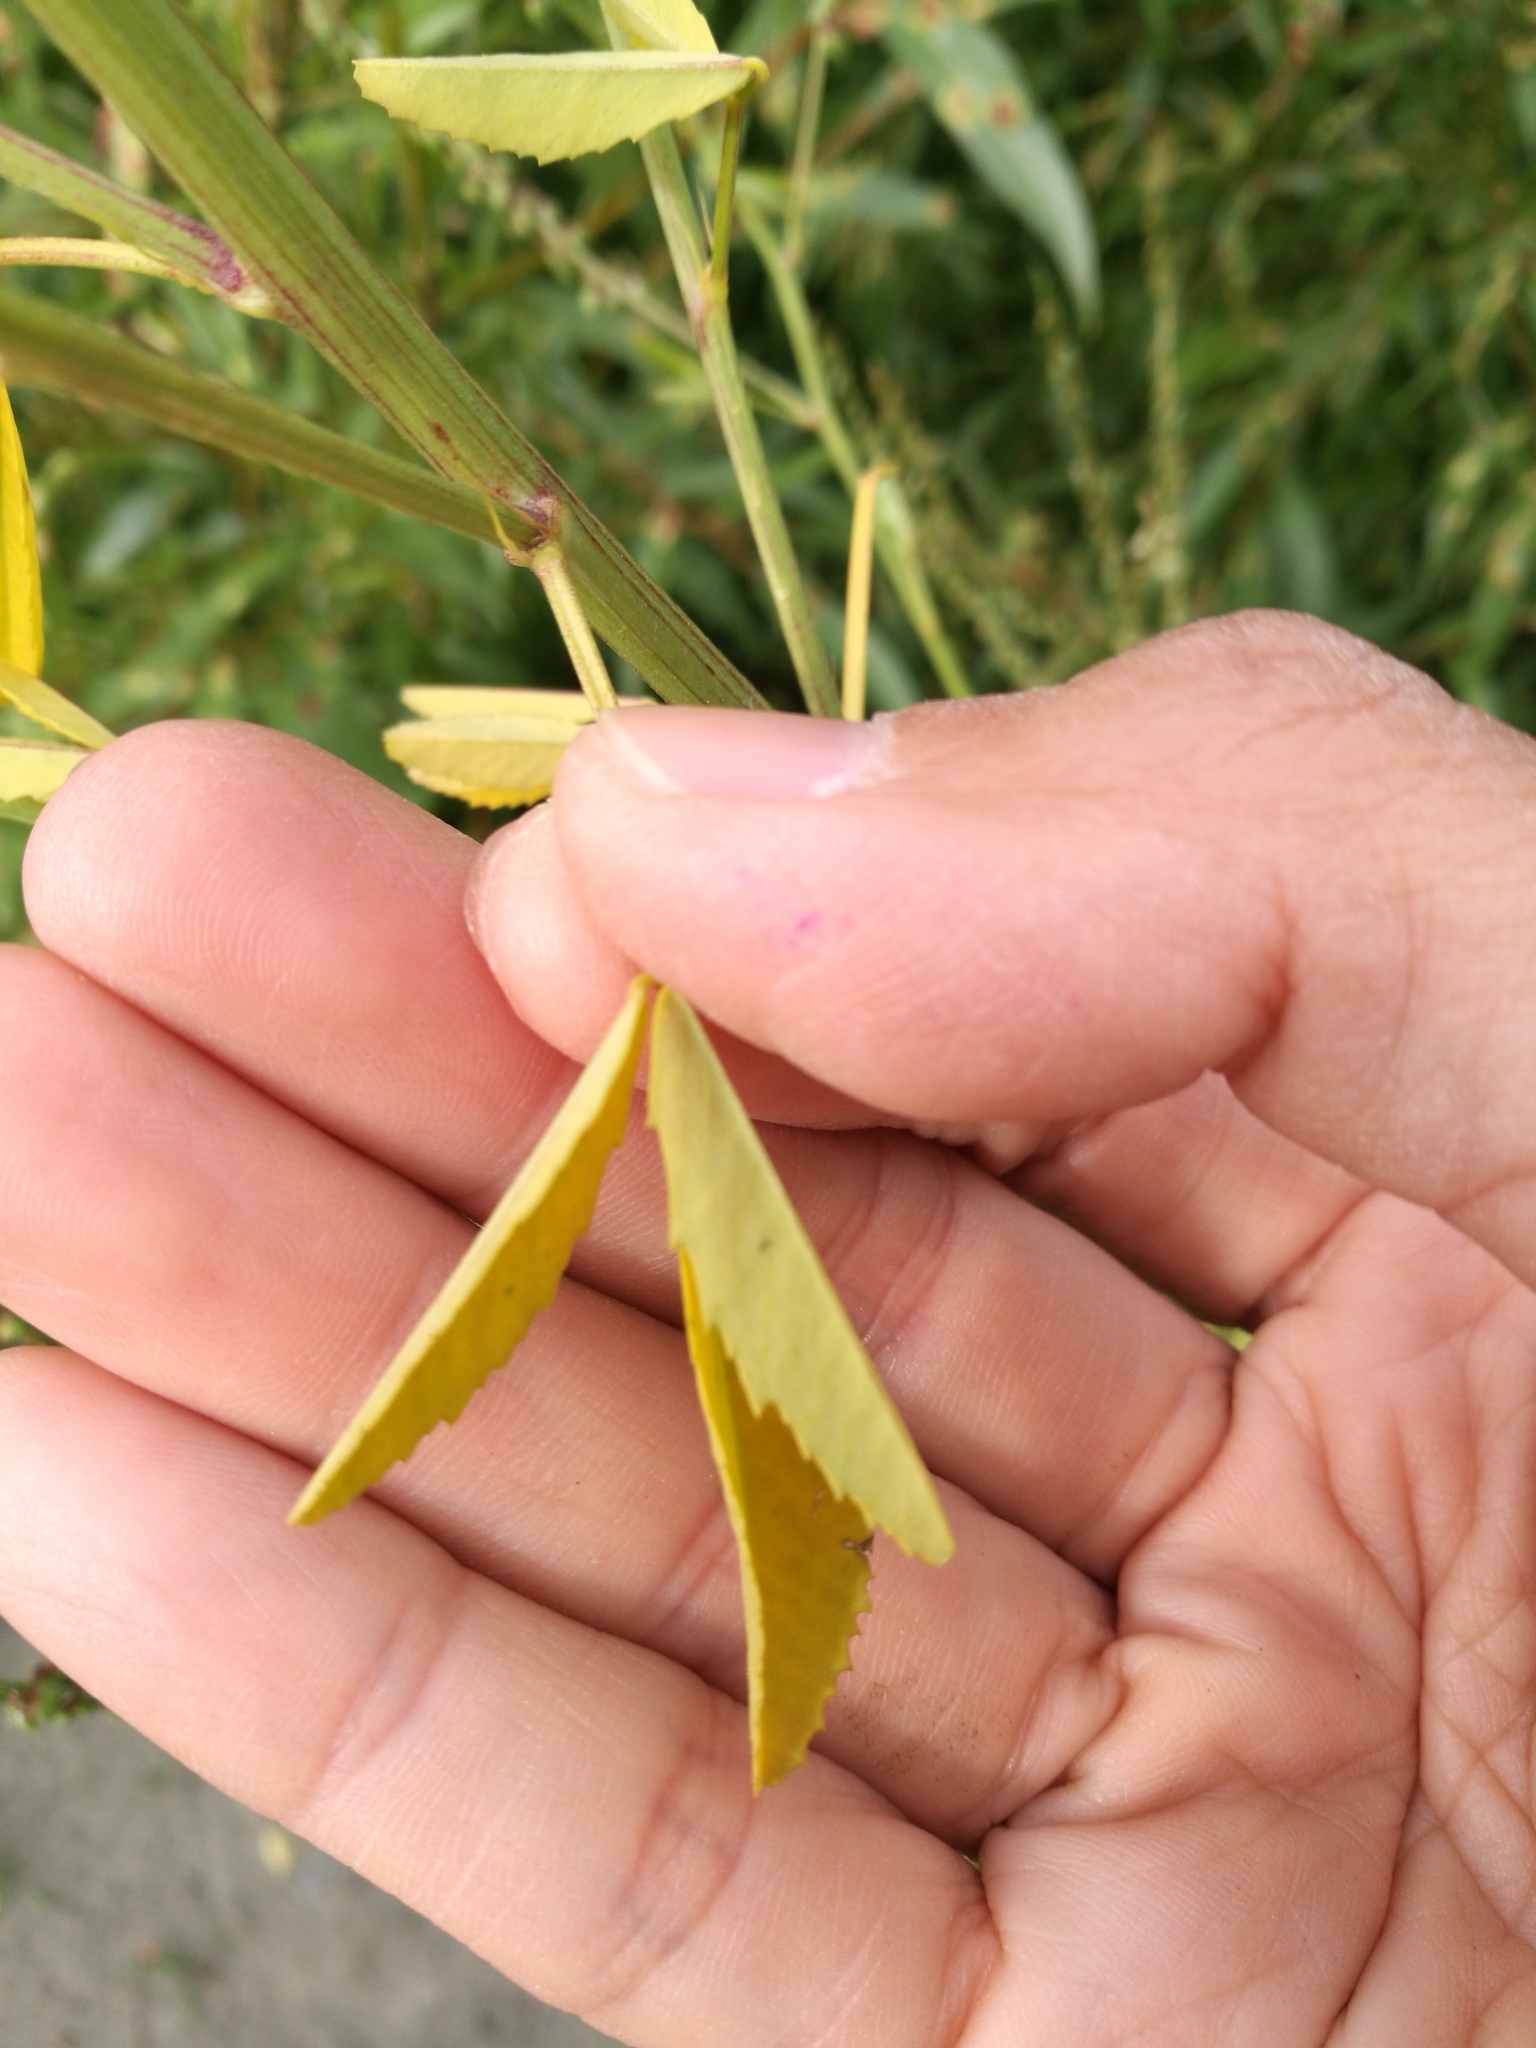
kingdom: Plantae
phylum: Tracheophyta
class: Magnoliopsida
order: Fabales
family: Fabaceae
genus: Melilotus
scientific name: Melilotus indicus
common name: Small melilot
